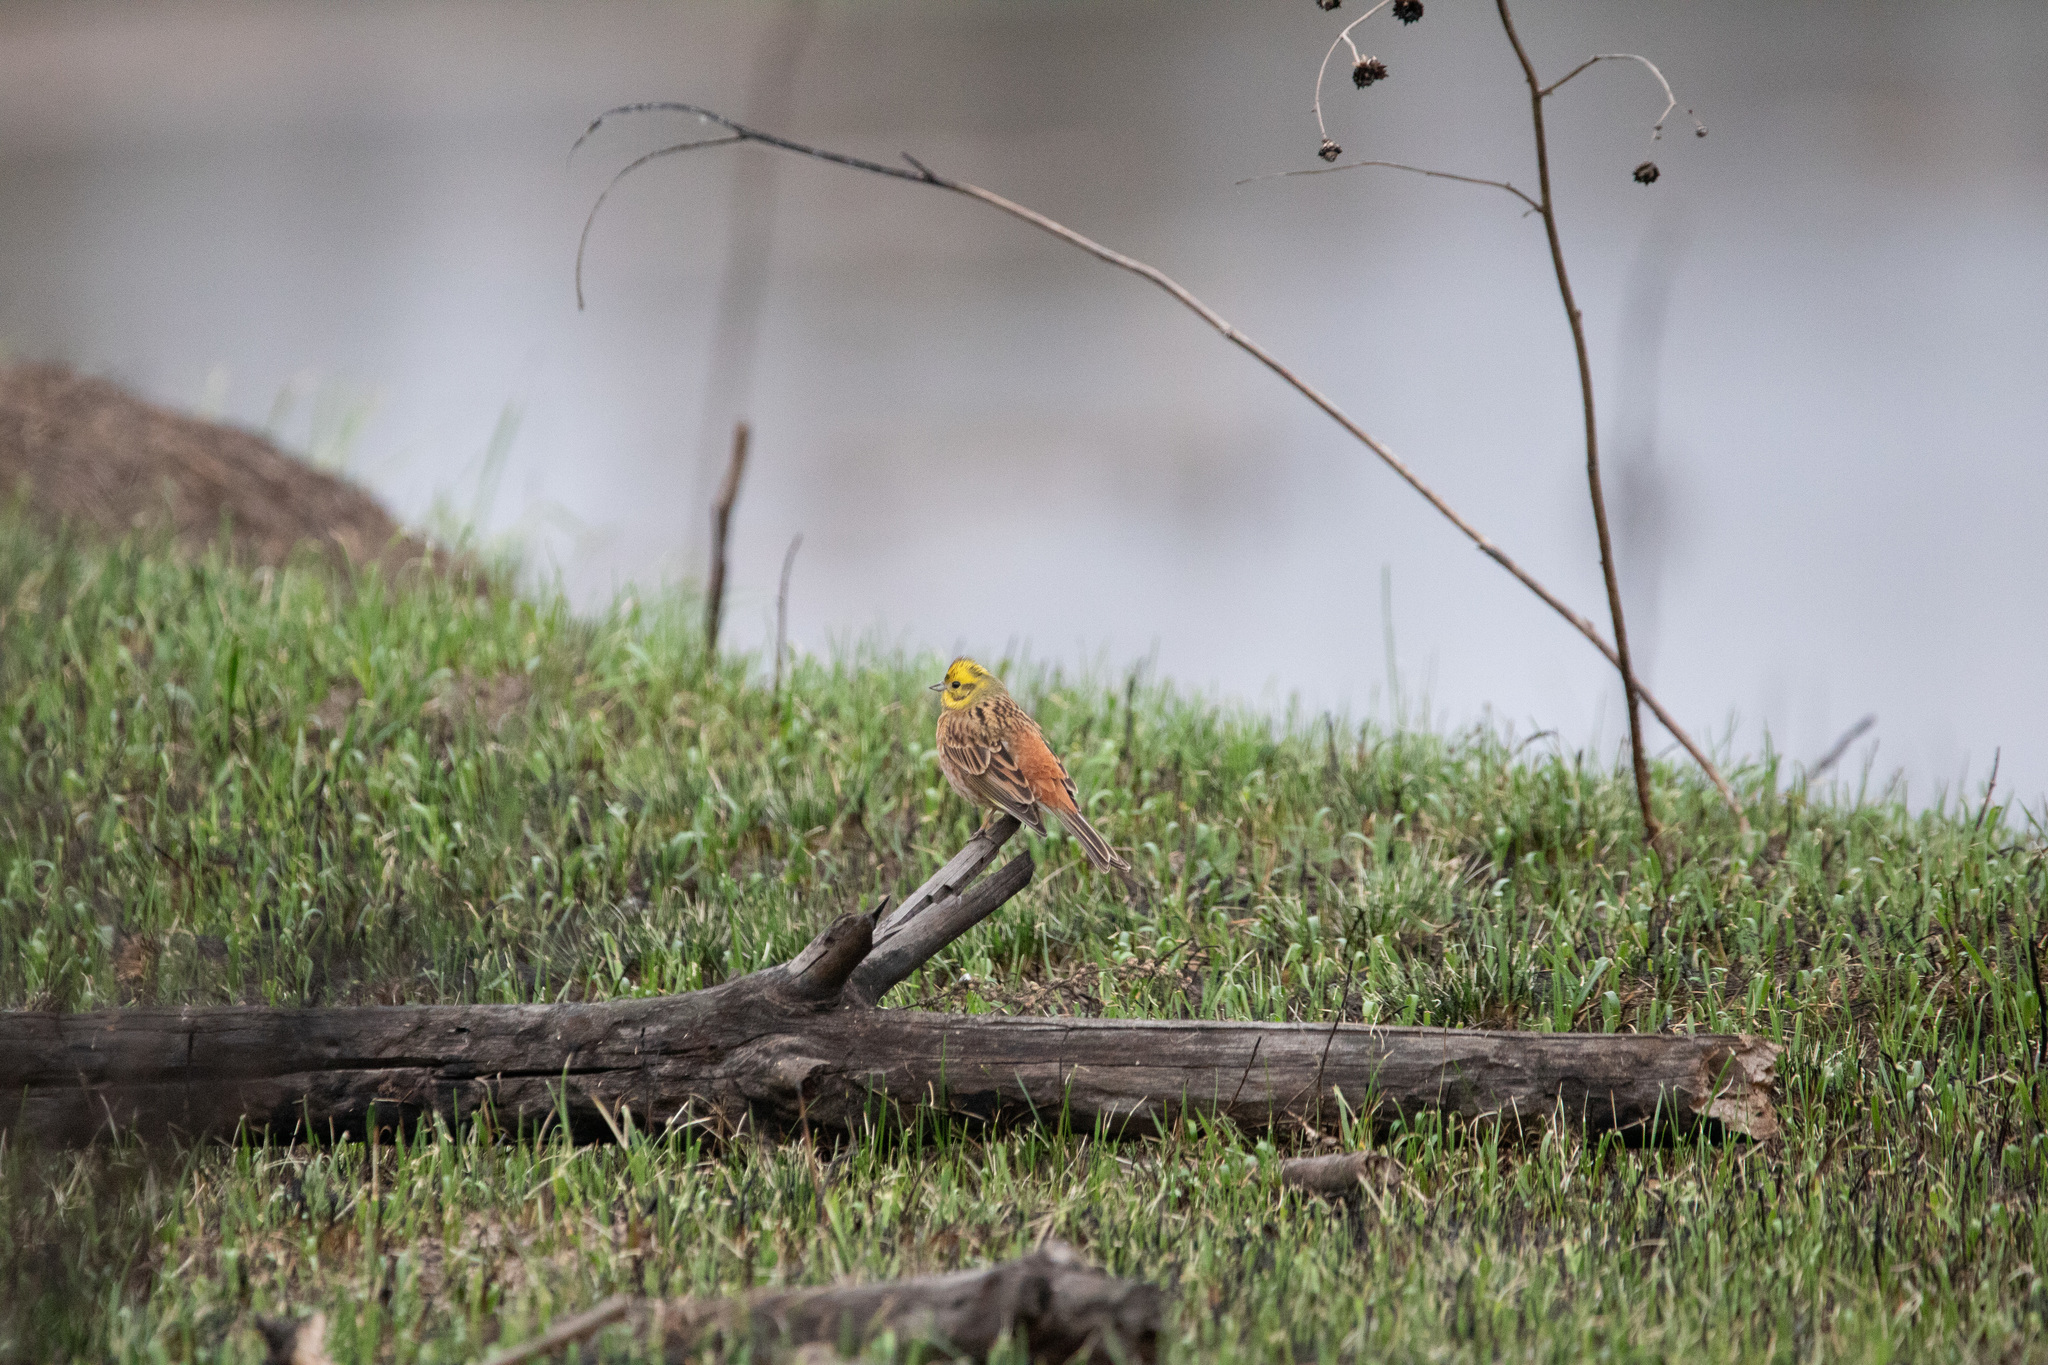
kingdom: Animalia
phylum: Chordata
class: Aves
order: Passeriformes
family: Emberizidae
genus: Emberiza
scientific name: Emberiza citrinella
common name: Yellowhammer
